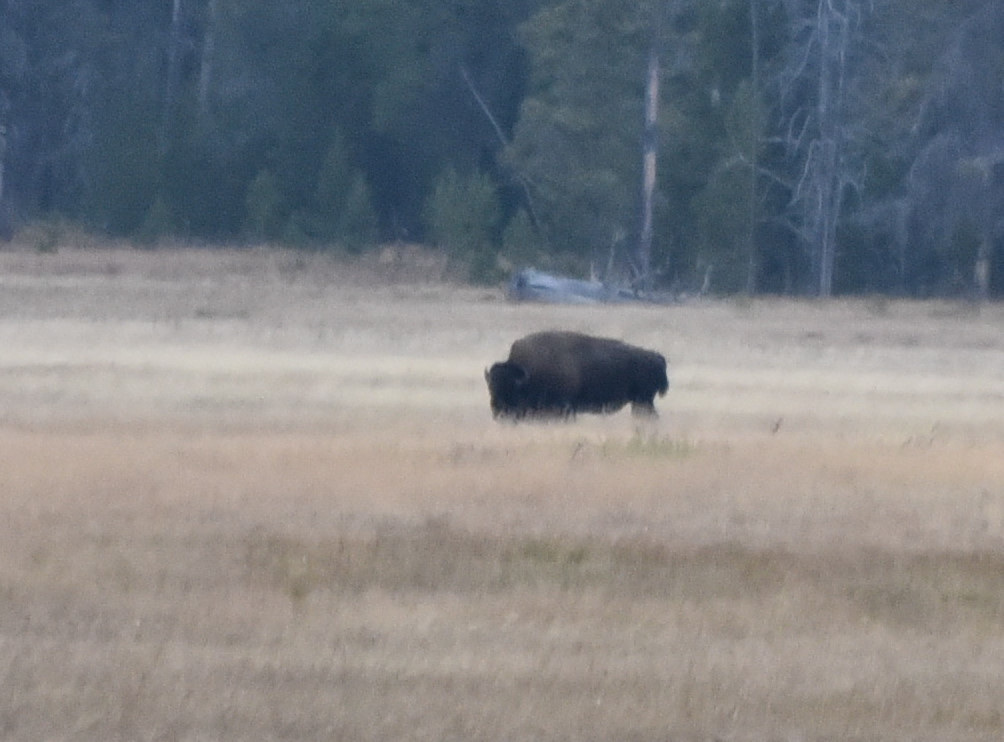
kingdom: Animalia
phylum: Chordata
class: Mammalia
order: Artiodactyla
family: Bovidae
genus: Bison
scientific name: Bison bison
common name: American bison
